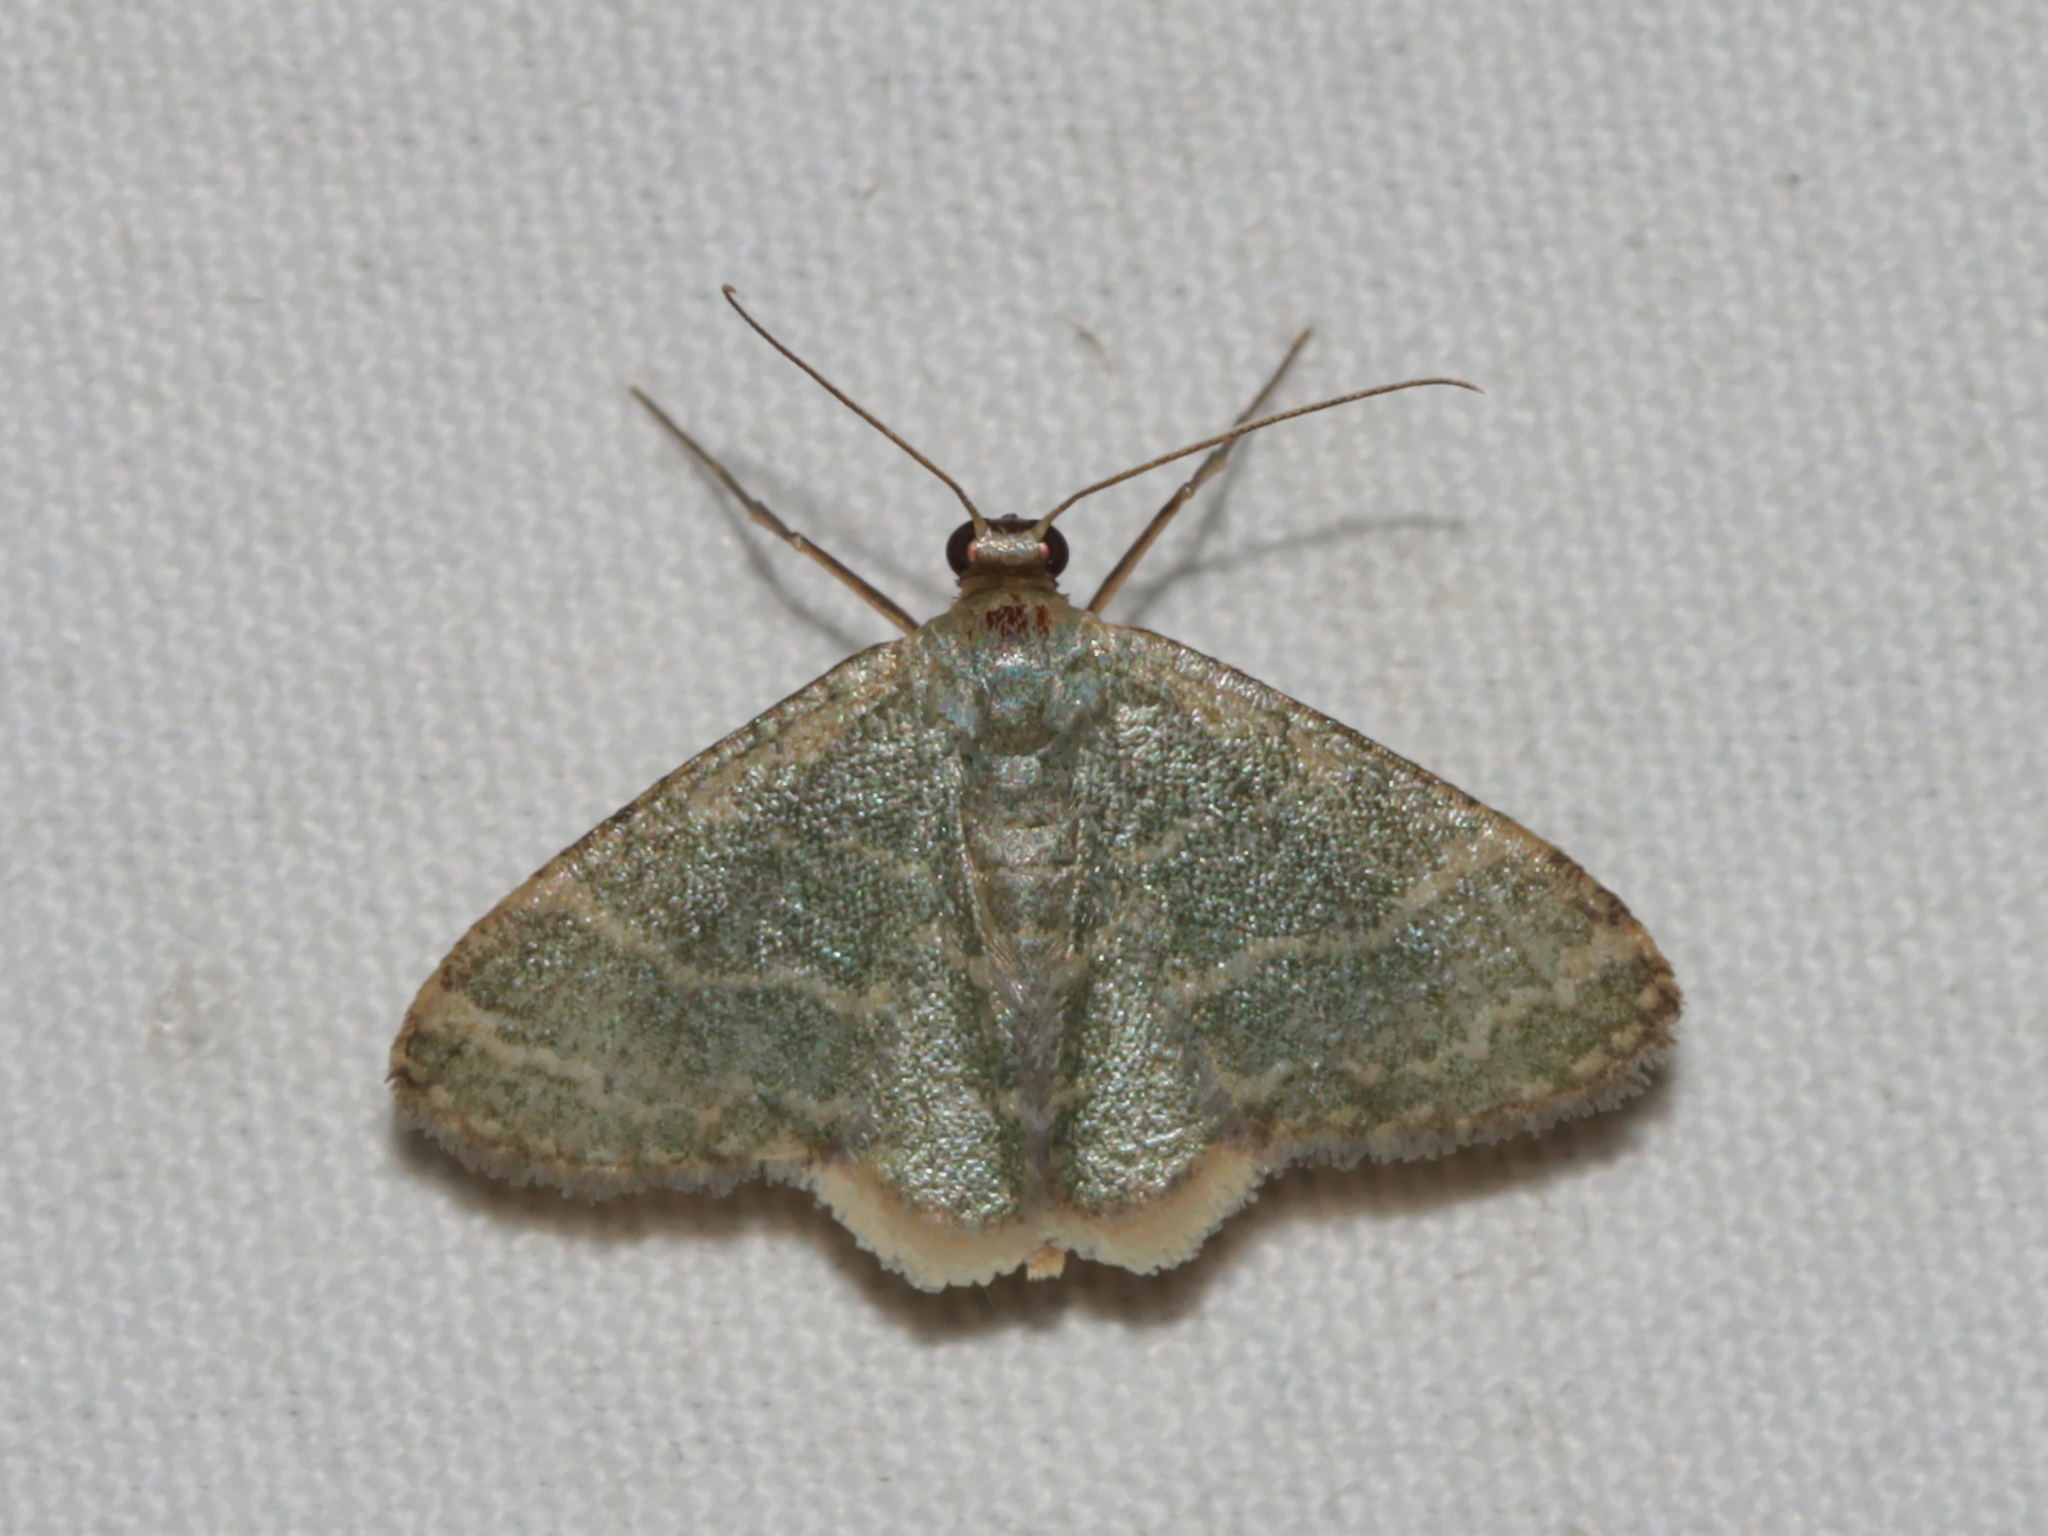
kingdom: Animalia
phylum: Arthropoda
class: Insecta
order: Lepidoptera
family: Geometridae
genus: Lophophleps
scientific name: Lophophleps triangularis
